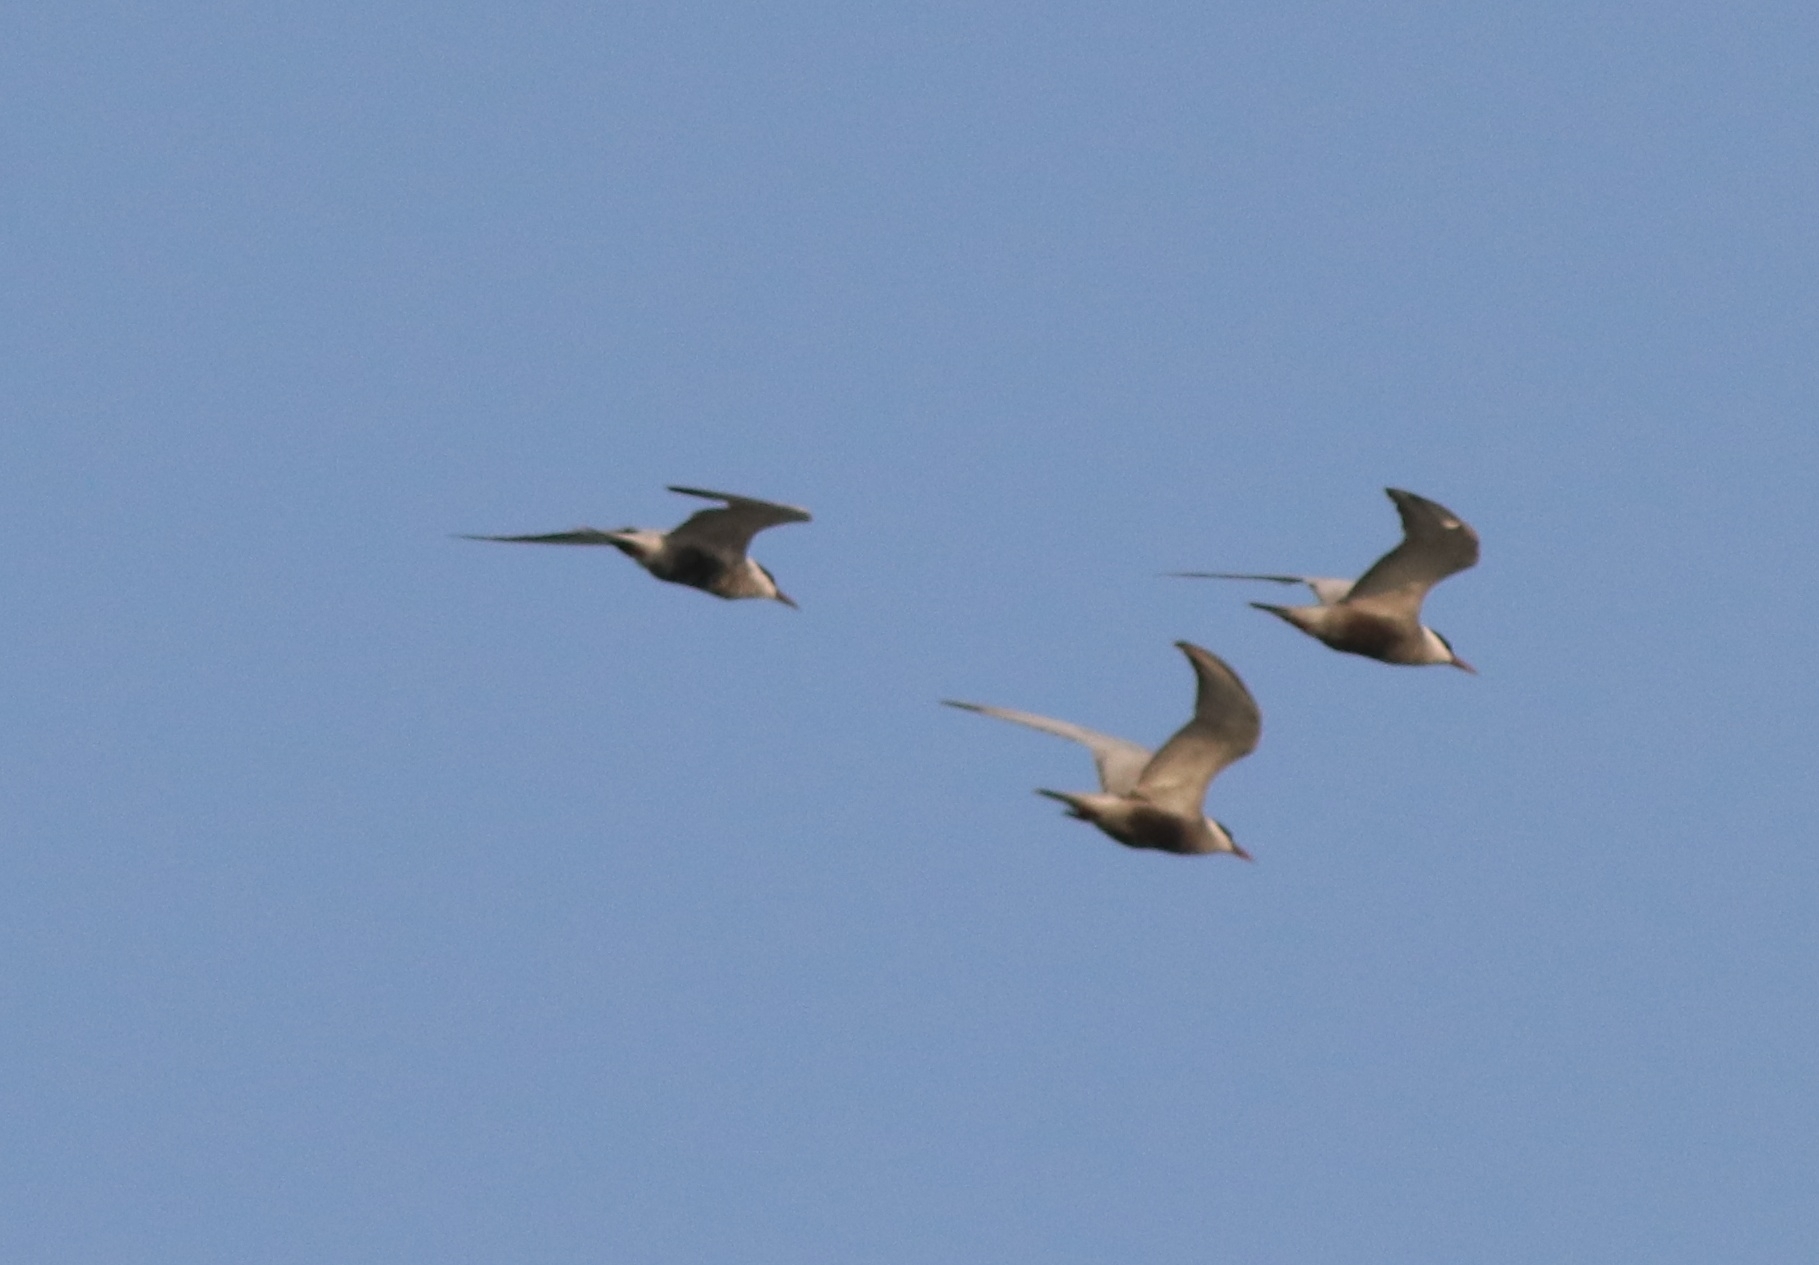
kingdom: Animalia
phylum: Chordata
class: Aves
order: Charadriiformes
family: Laridae
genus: Chlidonias
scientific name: Chlidonias hybrida
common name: Whiskered tern
